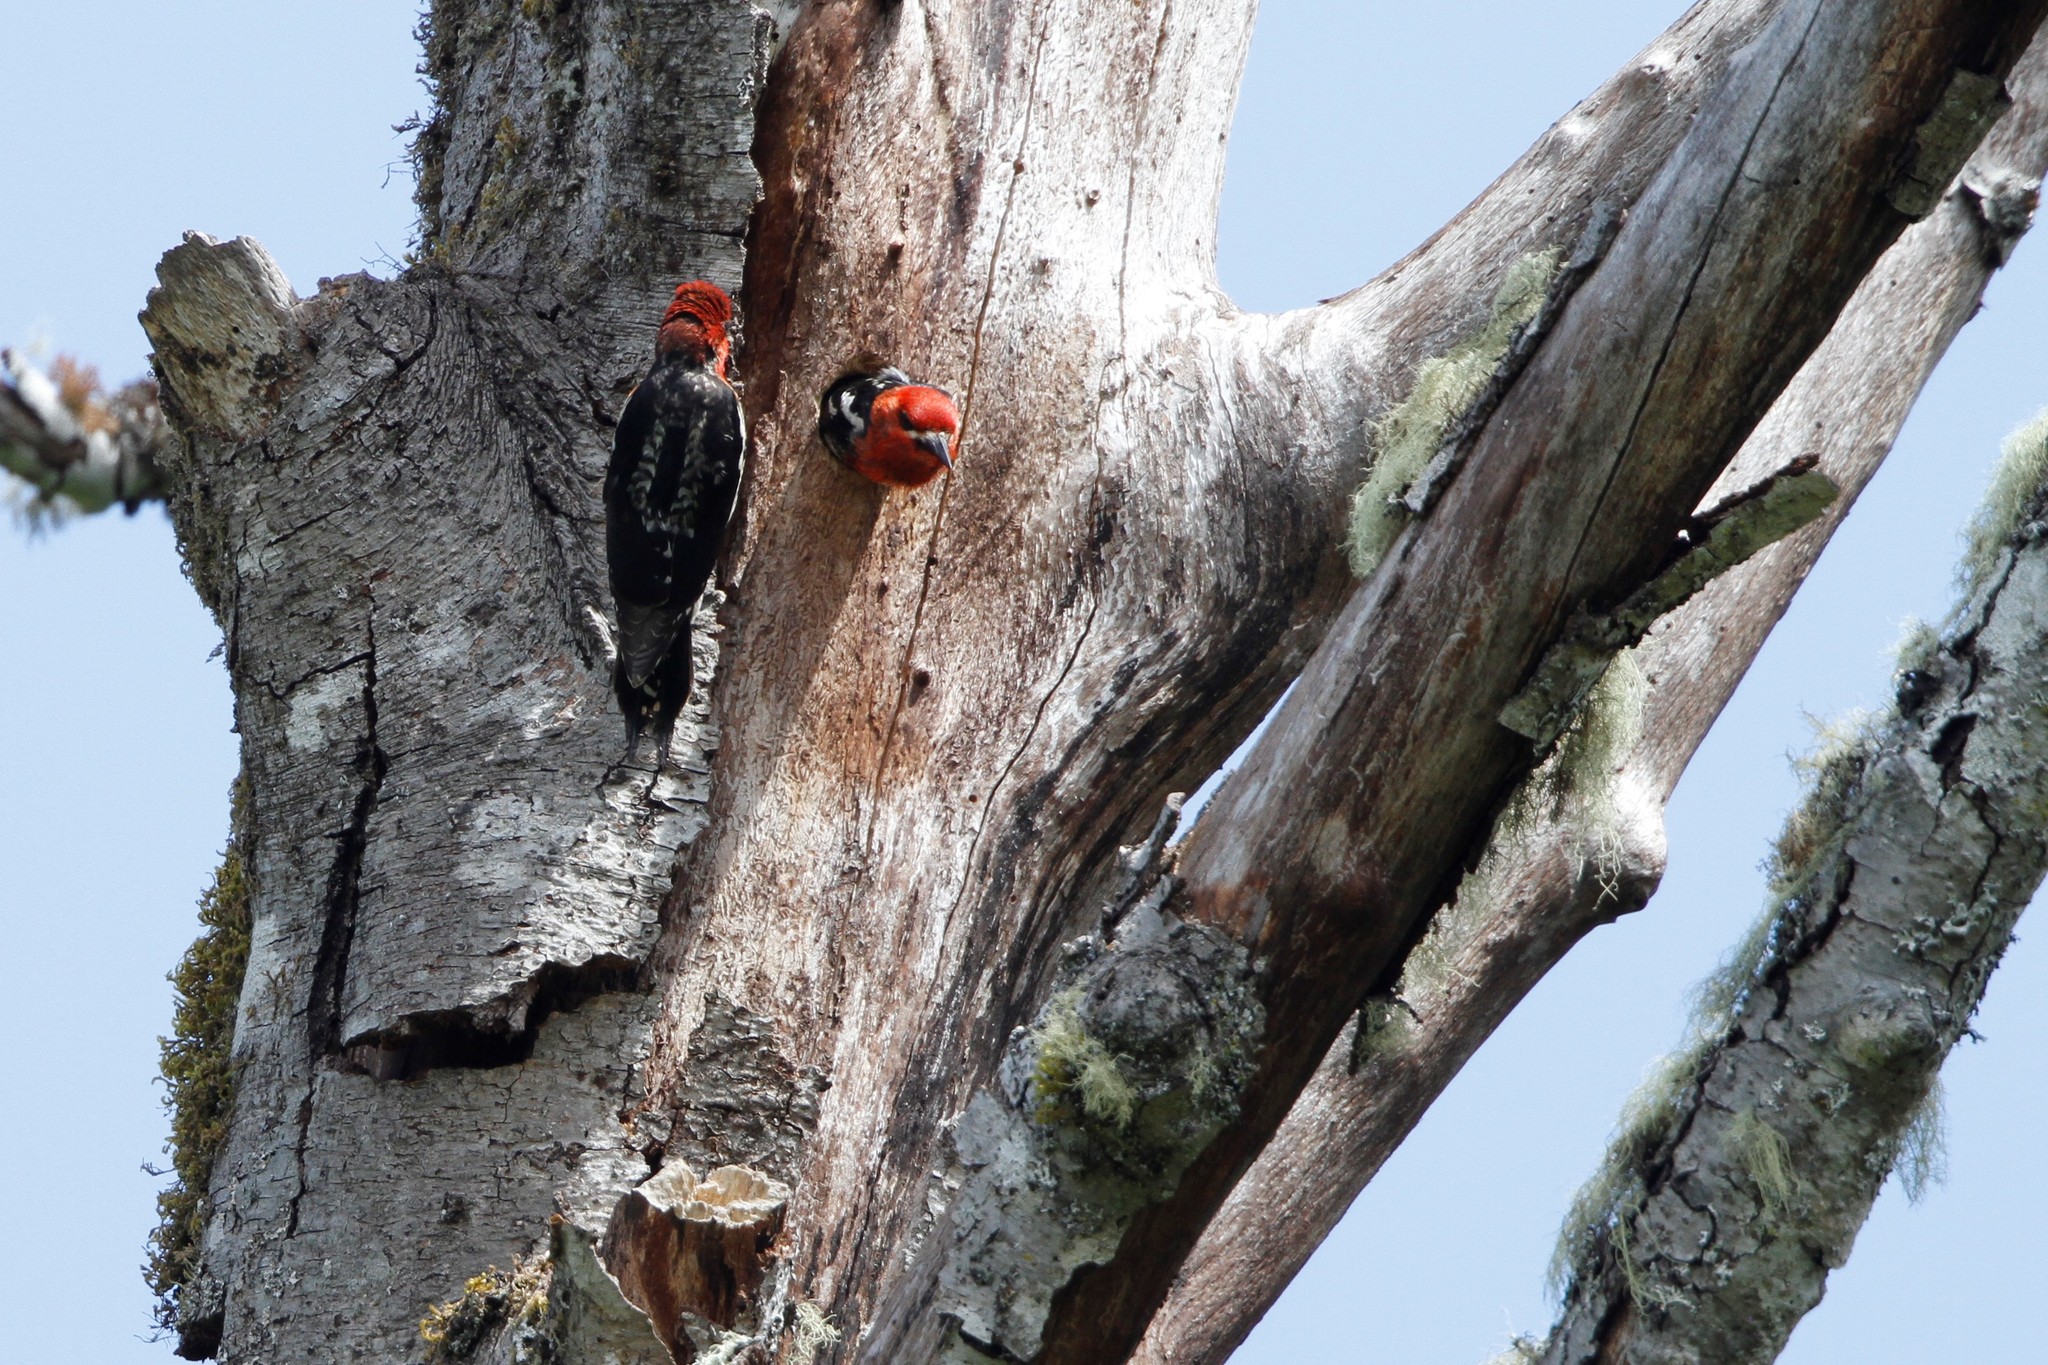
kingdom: Animalia
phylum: Chordata
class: Aves
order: Piciformes
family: Picidae
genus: Sphyrapicus
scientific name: Sphyrapicus ruber
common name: Red-breasted sapsucker
